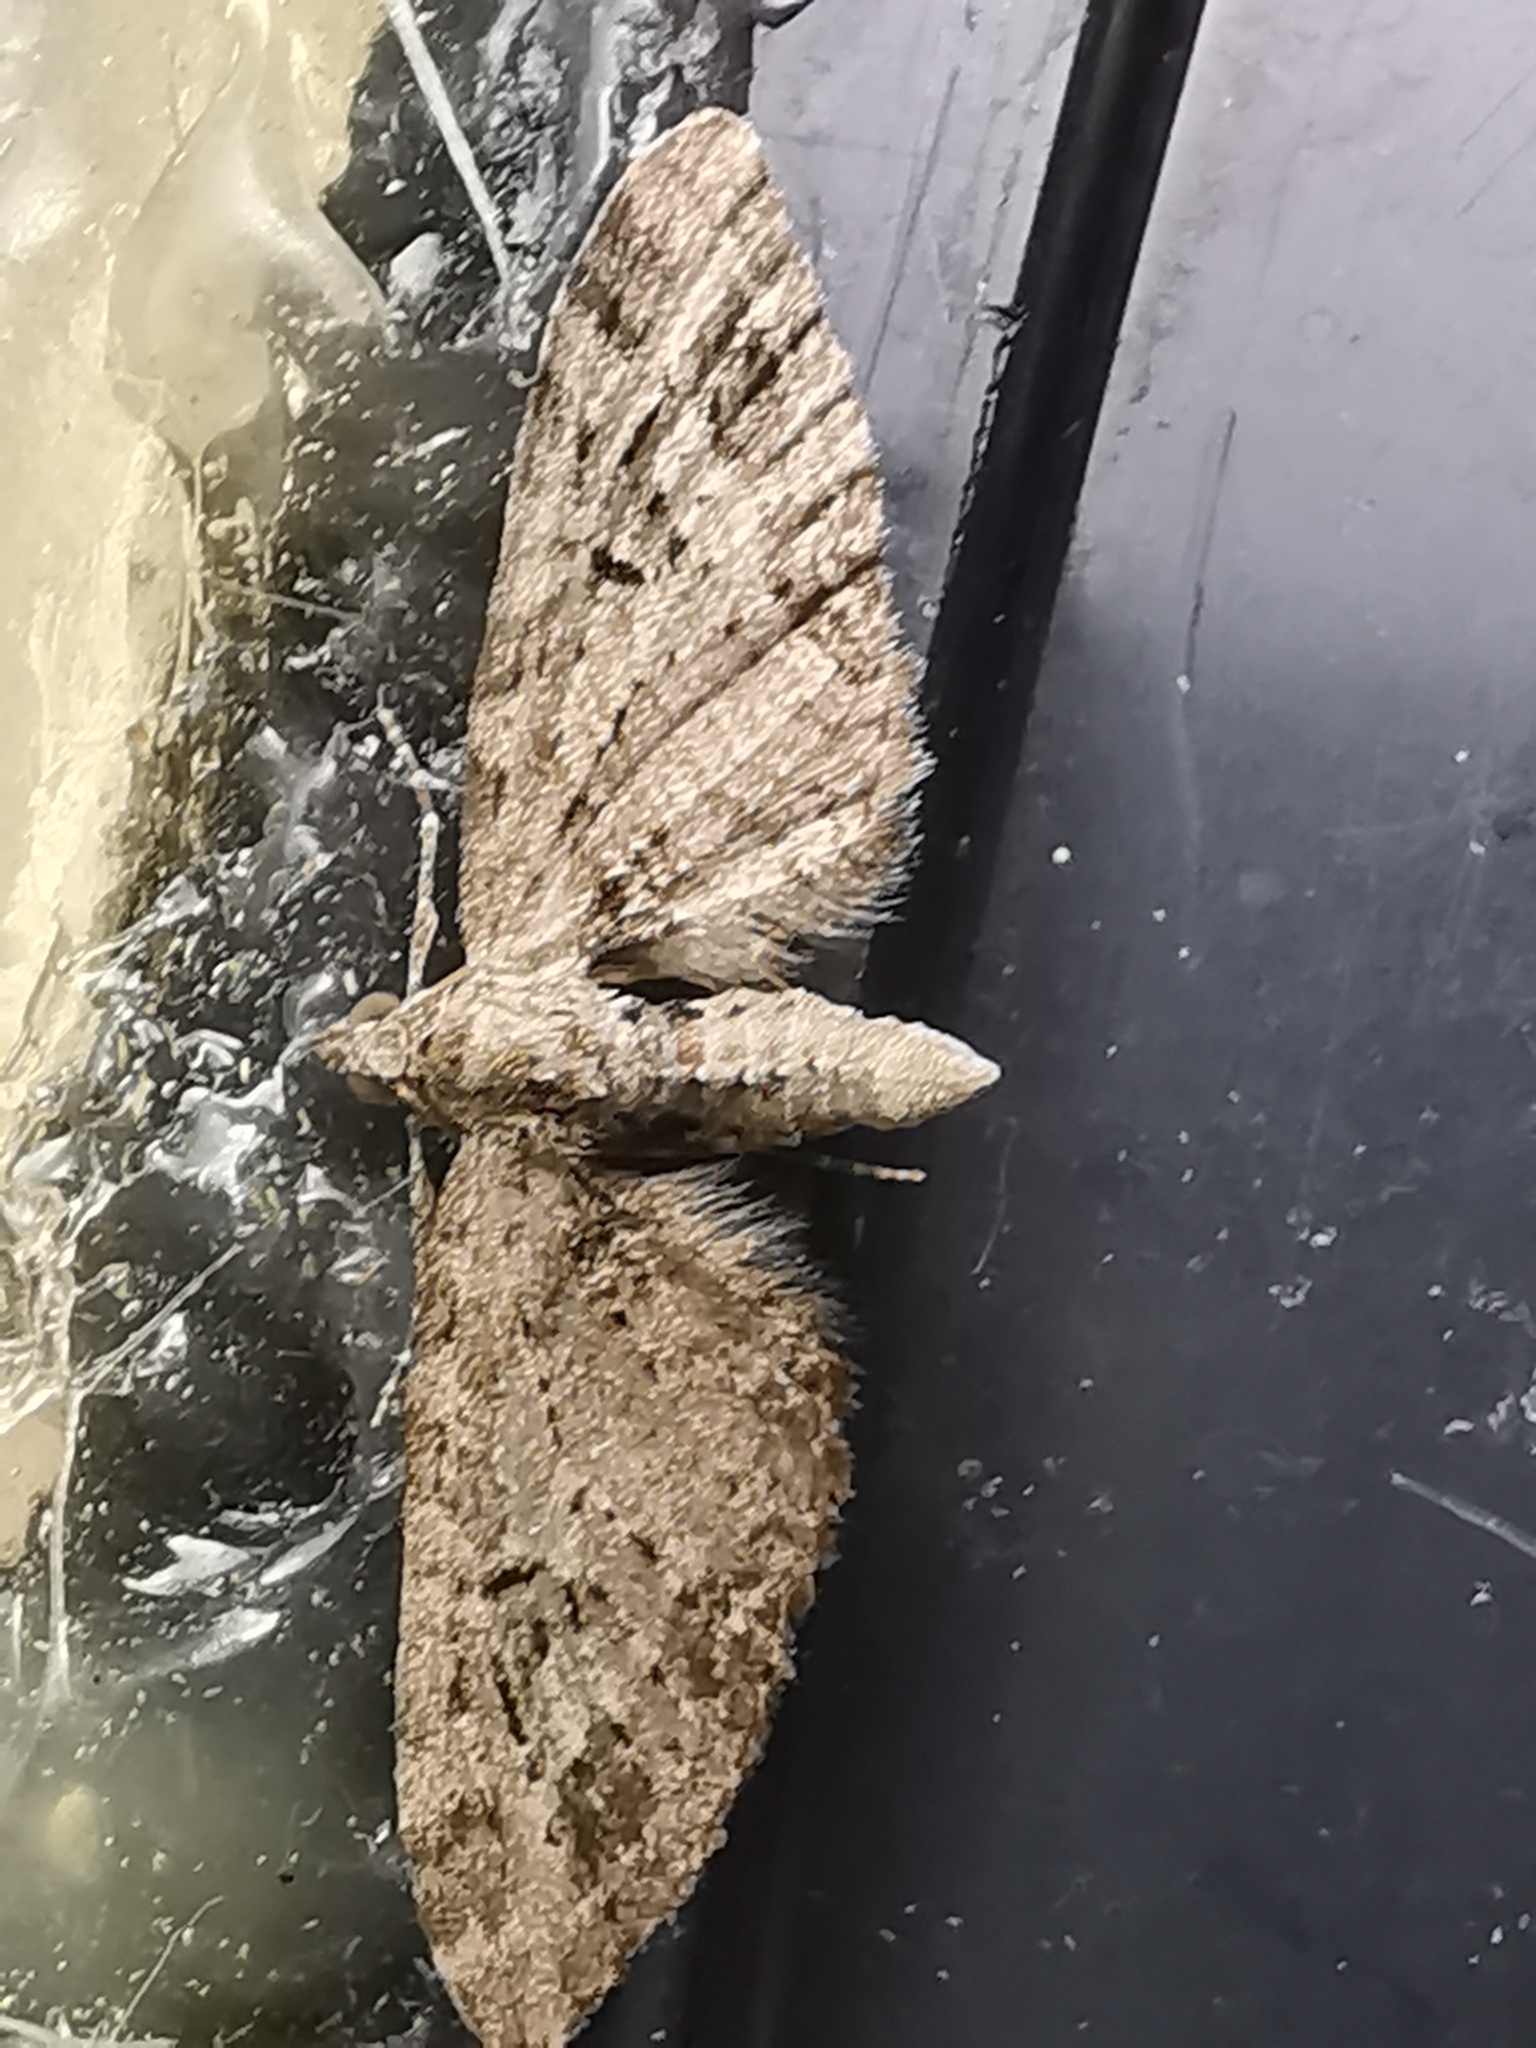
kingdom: Animalia
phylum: Arthropoda
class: Insecta
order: Lepidoptera
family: Geometridae
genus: Eupithecia
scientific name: Eupithecia exiguata
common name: Mottled pug
